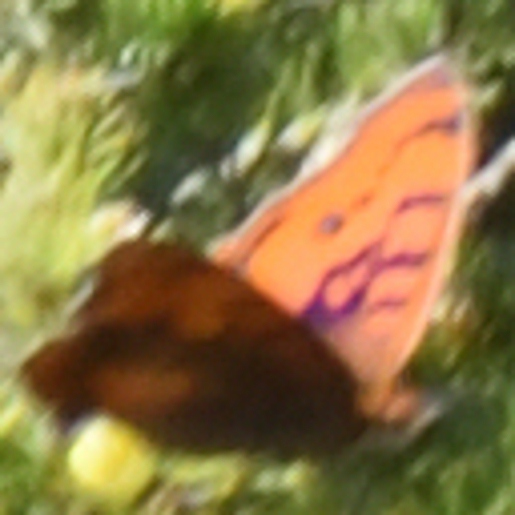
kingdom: Animalia
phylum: Arthropoda
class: Insecta
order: Lepidoptera
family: Nymphalidae
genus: Catacroptera
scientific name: Catacroptera cloanthe
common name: Pirate
